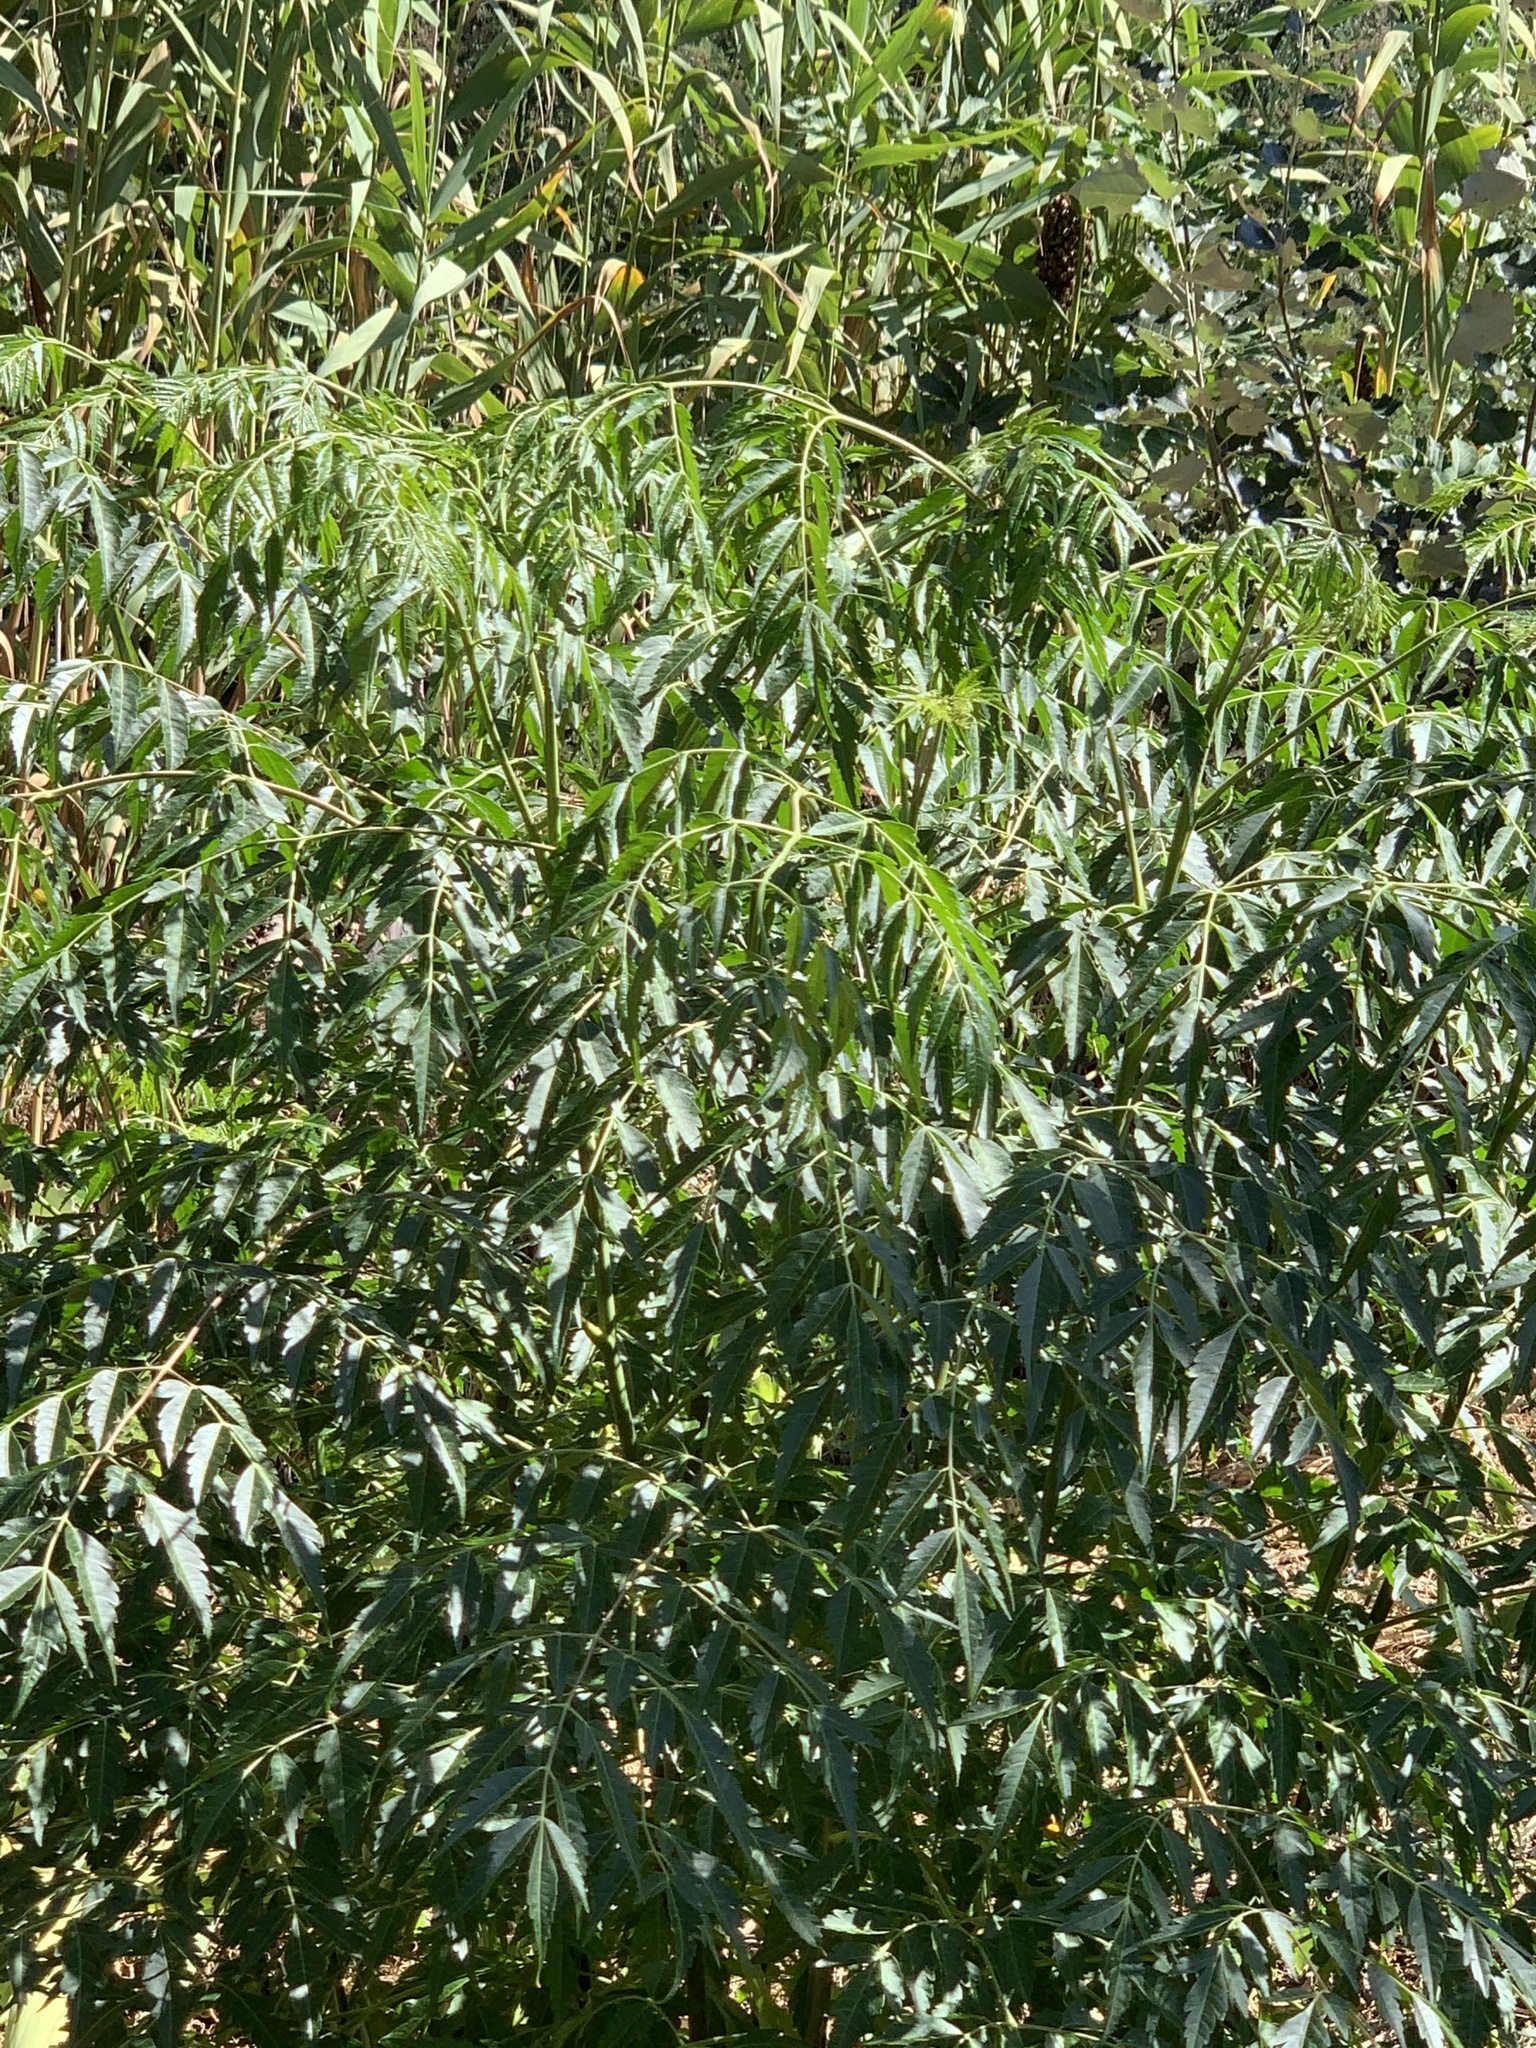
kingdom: Plantae
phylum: Tracheophyta
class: Magnoliopsida
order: Sapindales
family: Meliaceae
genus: Melia
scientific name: Melia azedarach
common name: Chinaberrytree
